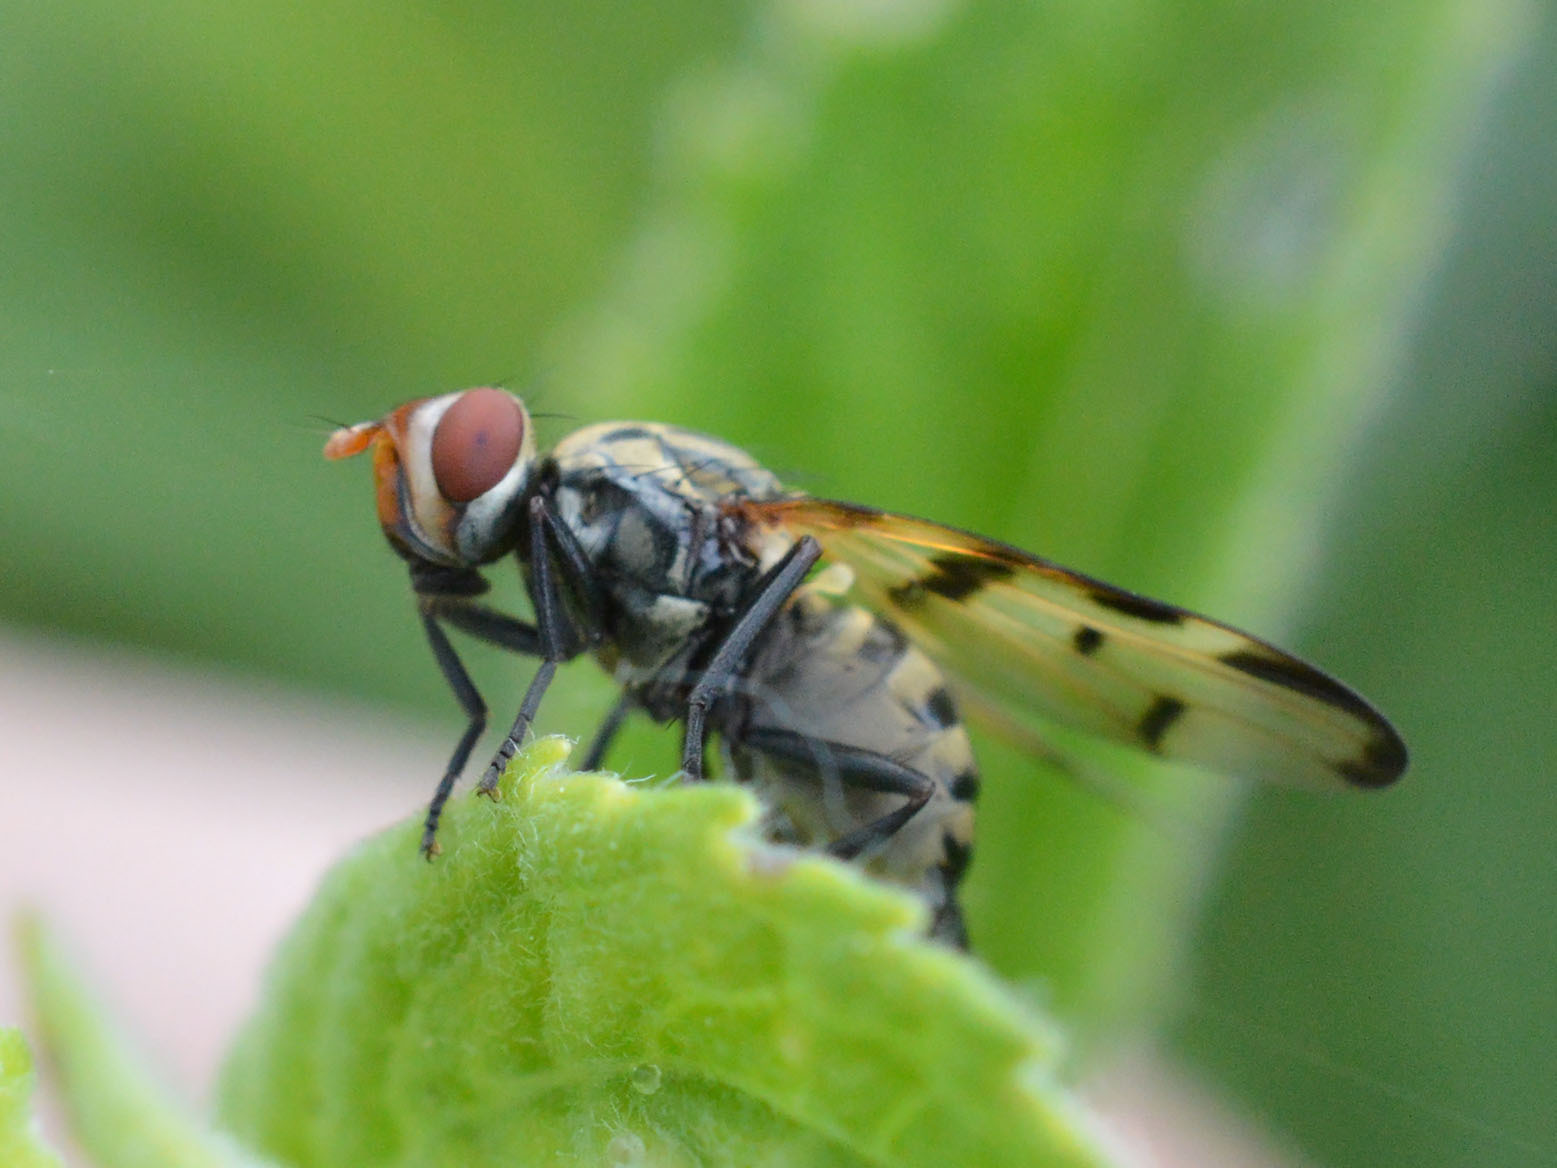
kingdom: Animalia
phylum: Arthropoda
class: Insecta
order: Diptera
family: Ulidiidae
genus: Otites
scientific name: Otites formosa
